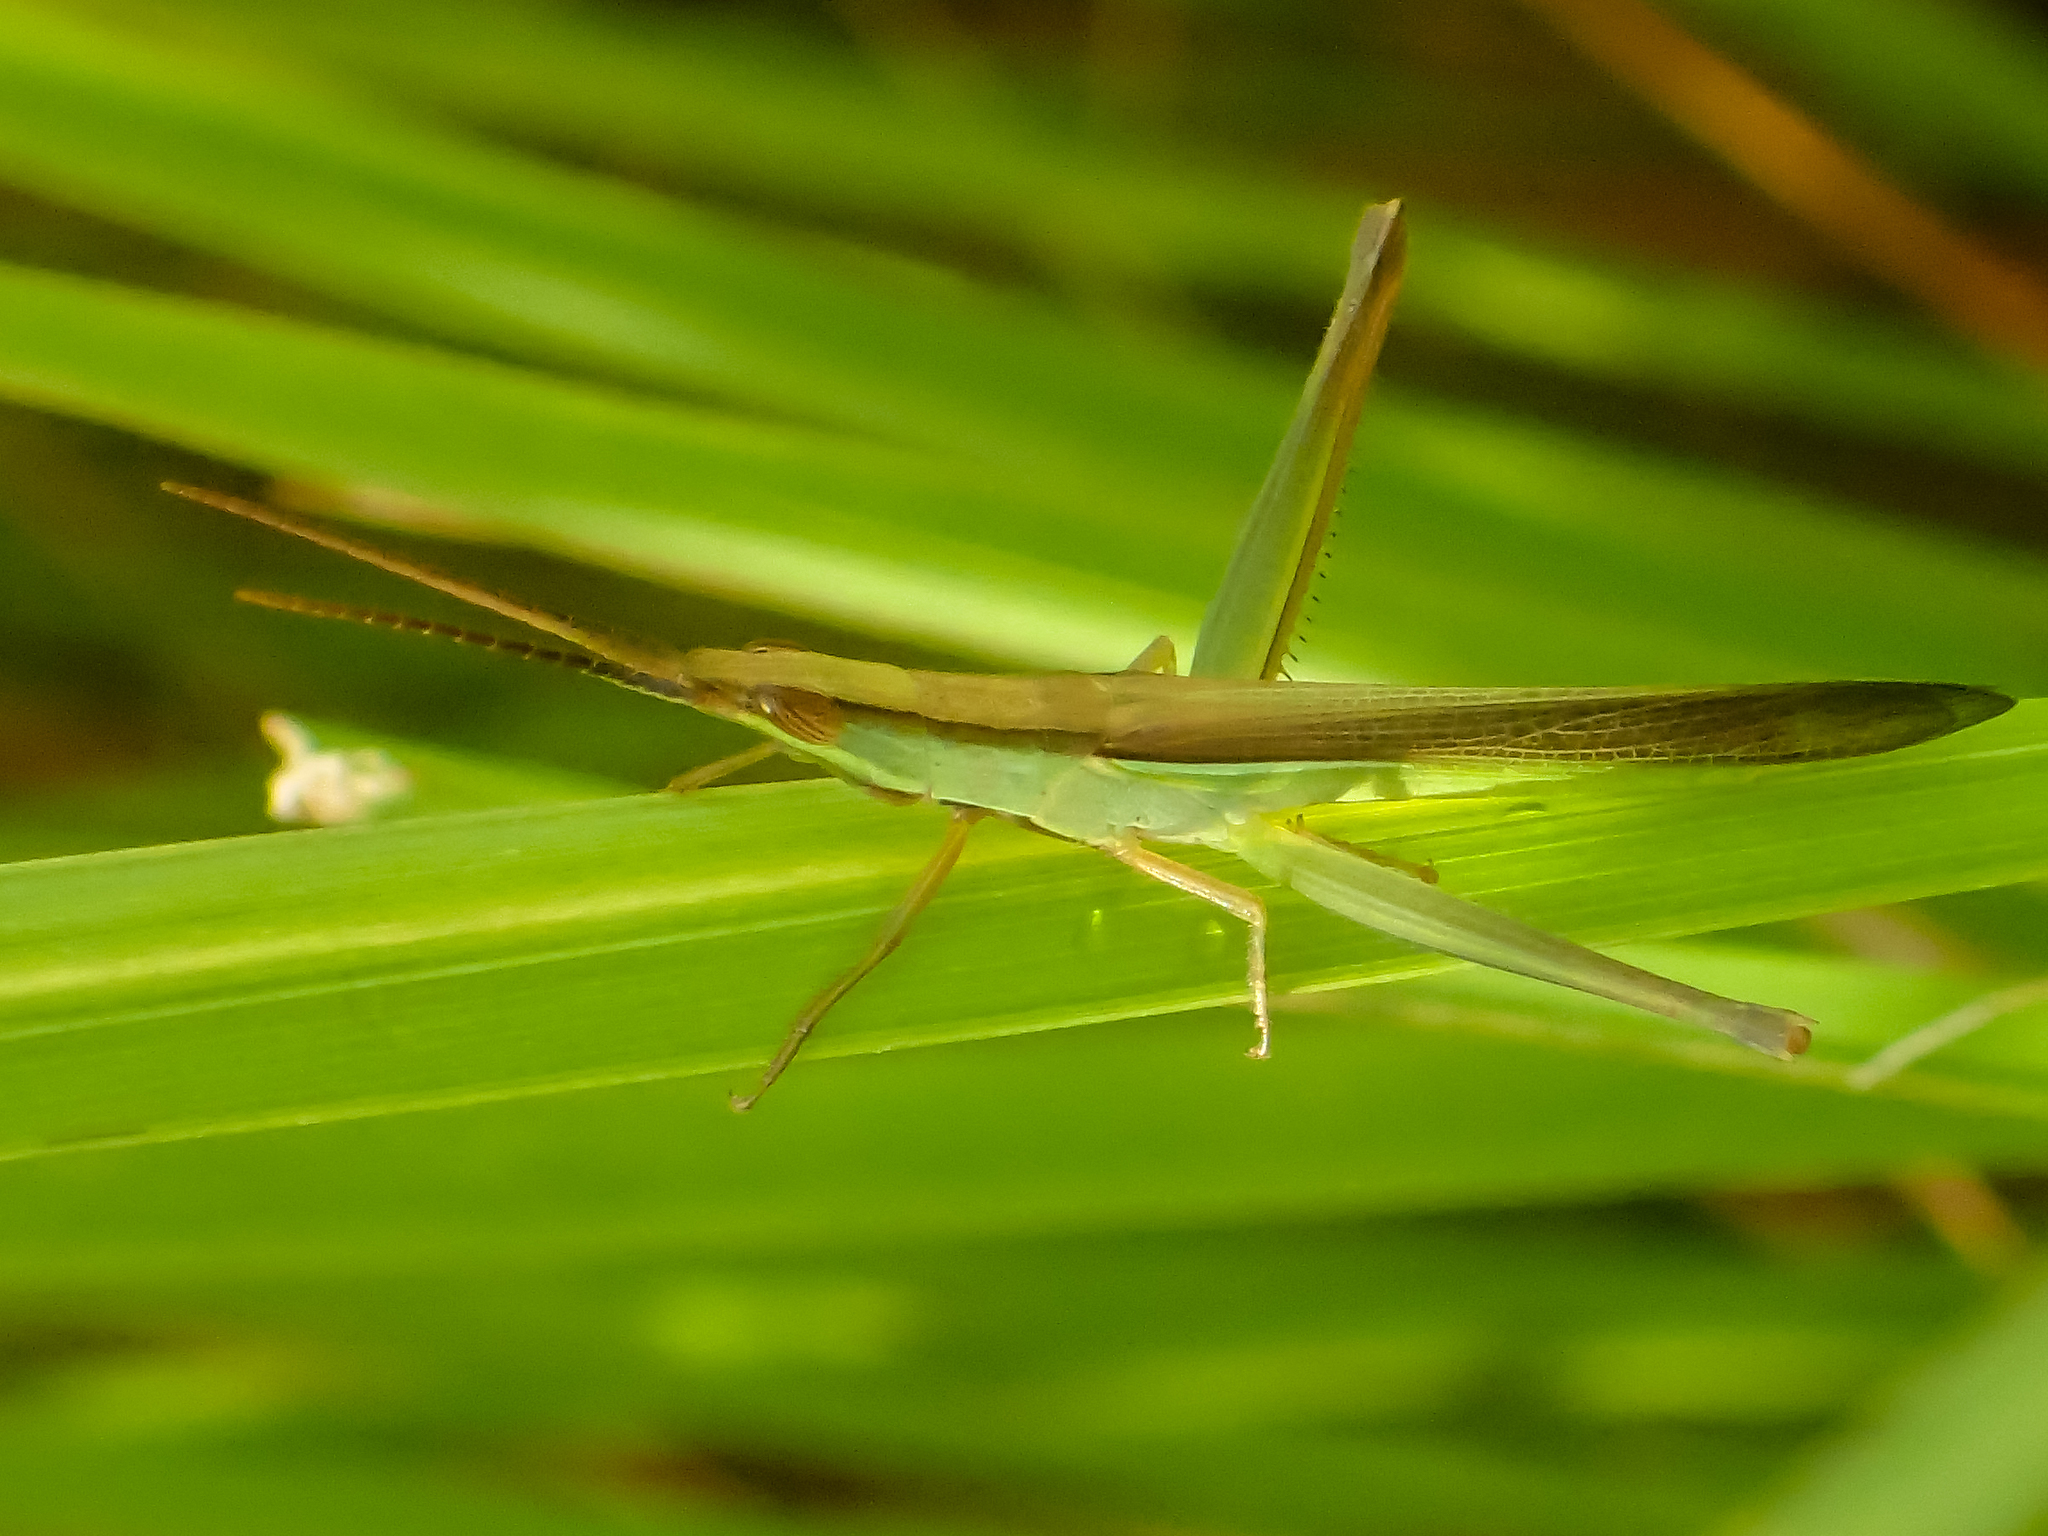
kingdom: Animalia
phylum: Arthropoda
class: Insecta
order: Orthoptera
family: Acrididae
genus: Gonista
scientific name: Gonista bicolor
